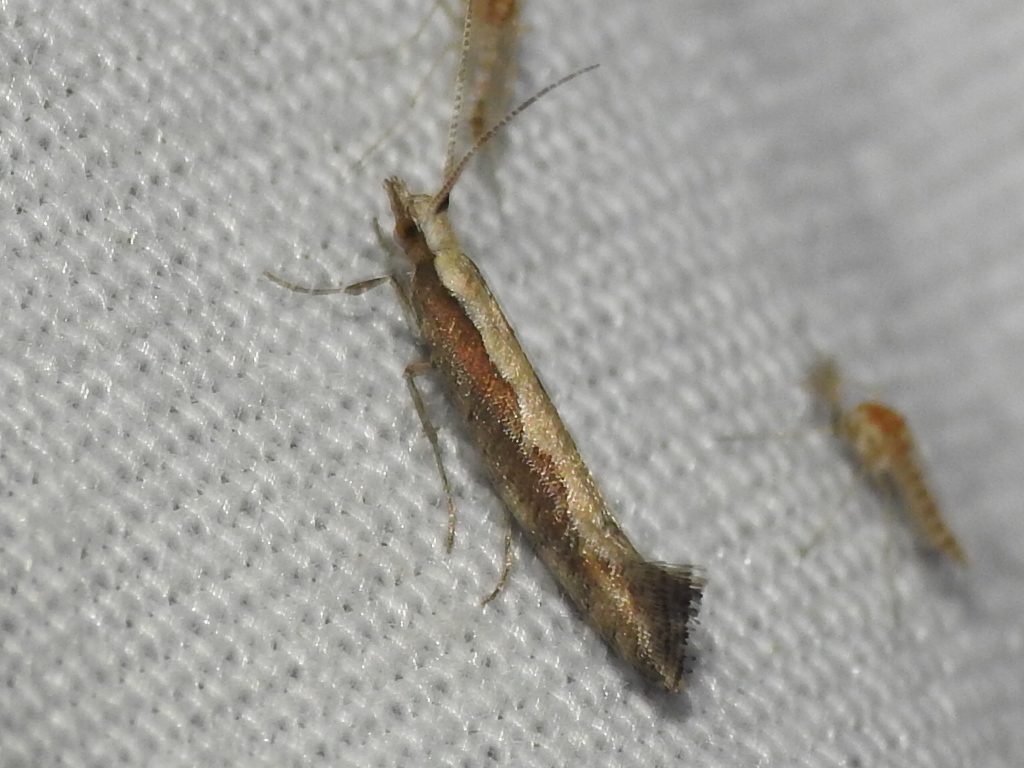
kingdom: Animalia
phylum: Arthropoda
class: Insecta
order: Lepidoptera
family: Plutellidae
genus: Plutella
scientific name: Plutella xylostella
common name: Diamond-back moth
